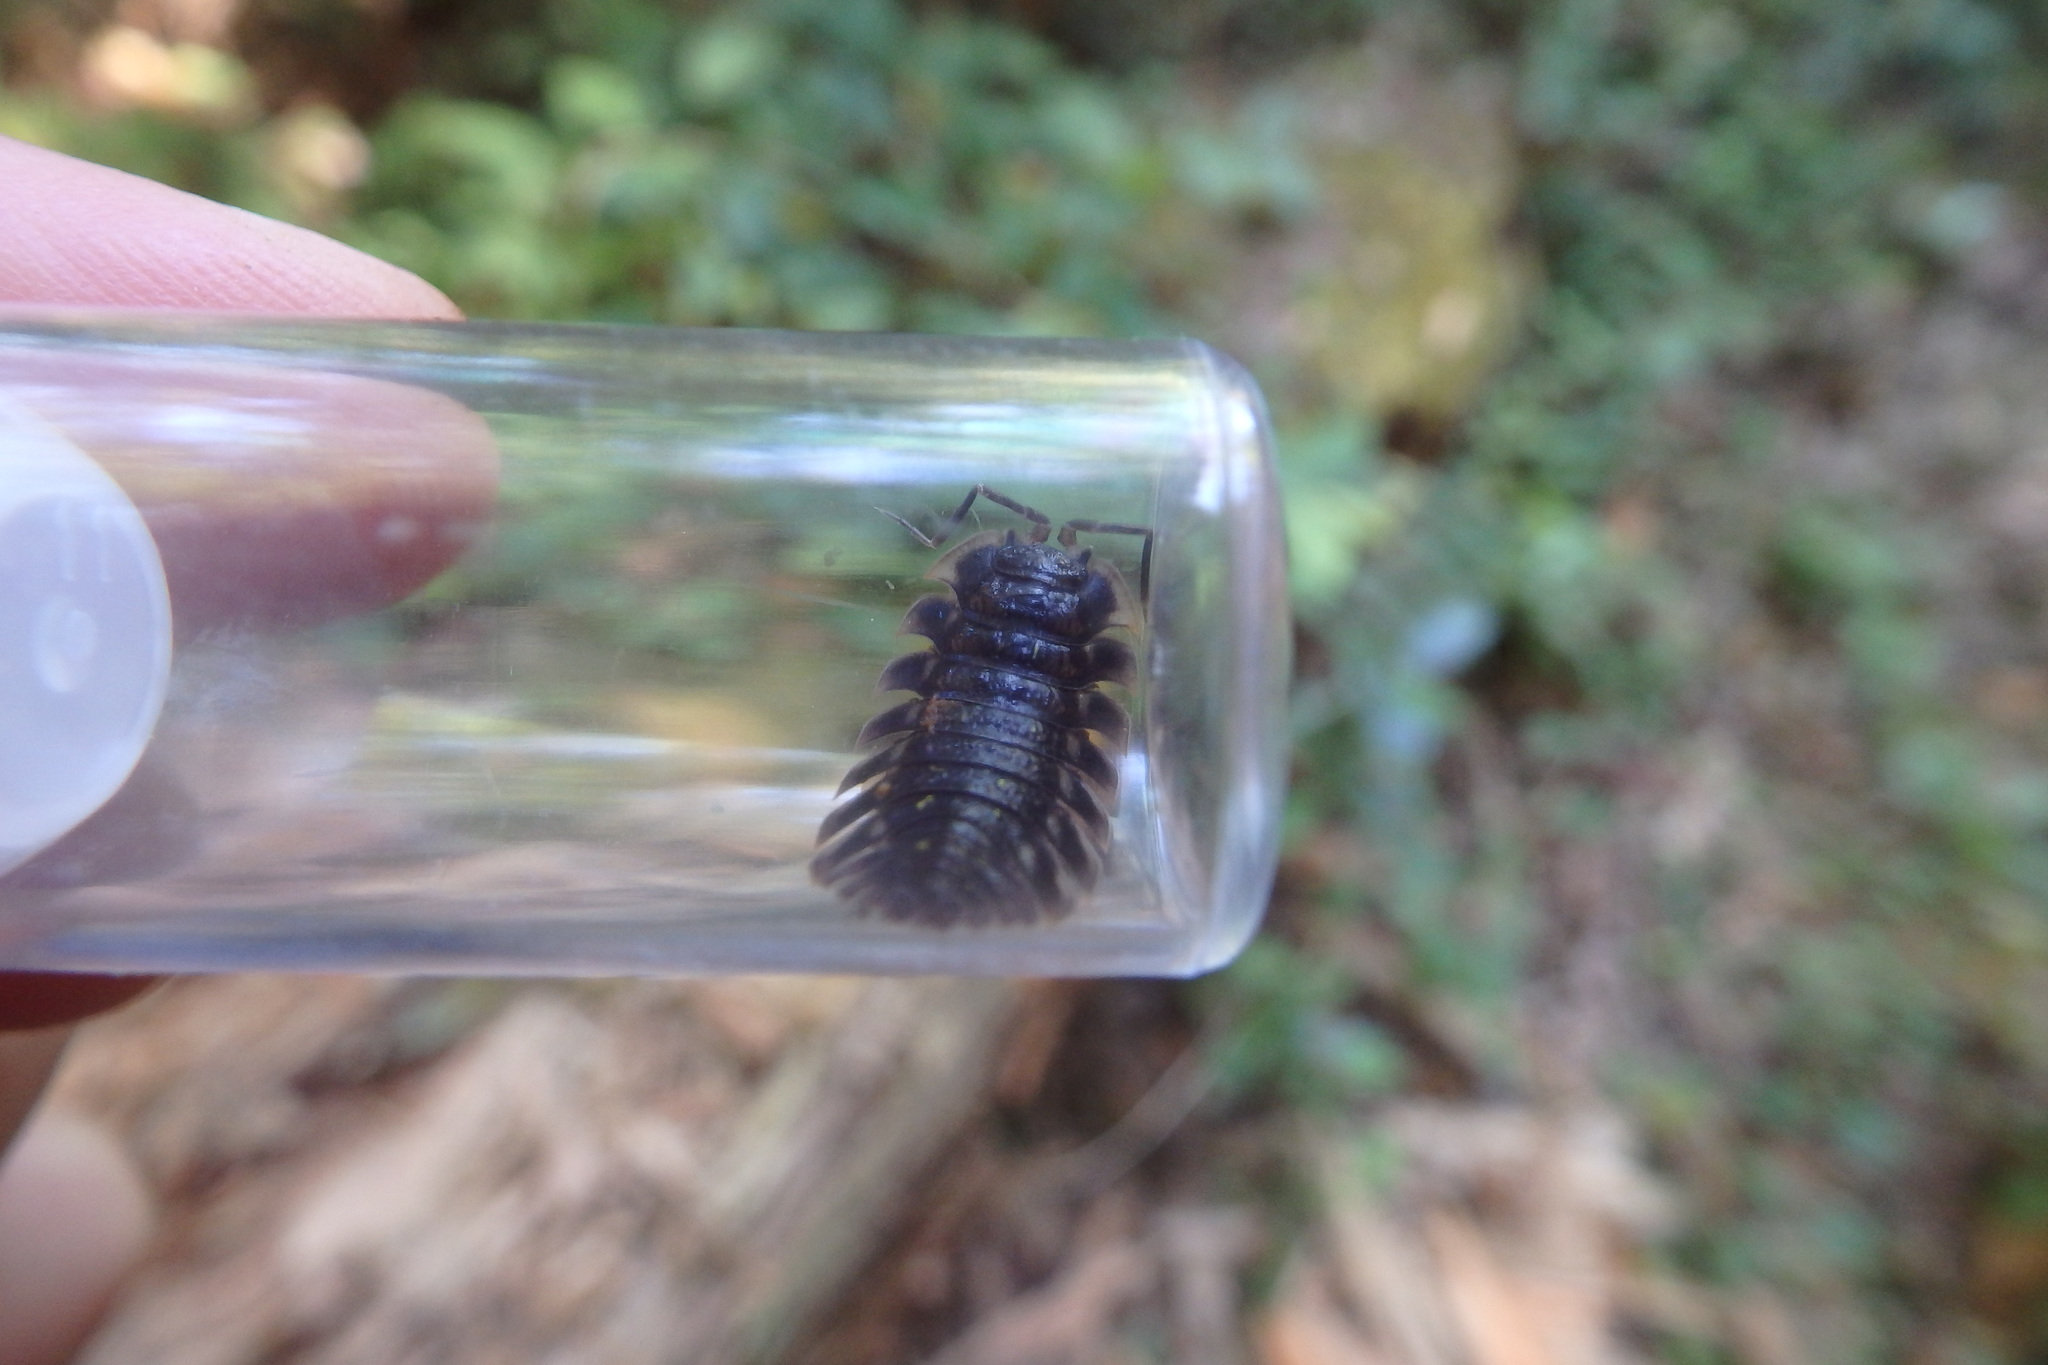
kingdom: Animalia
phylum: Arthropoda
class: Malacostraca
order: Isopoda
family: Oniscidae
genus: Oniscus
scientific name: Oniscus asellus
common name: Common shiny woodlouse
